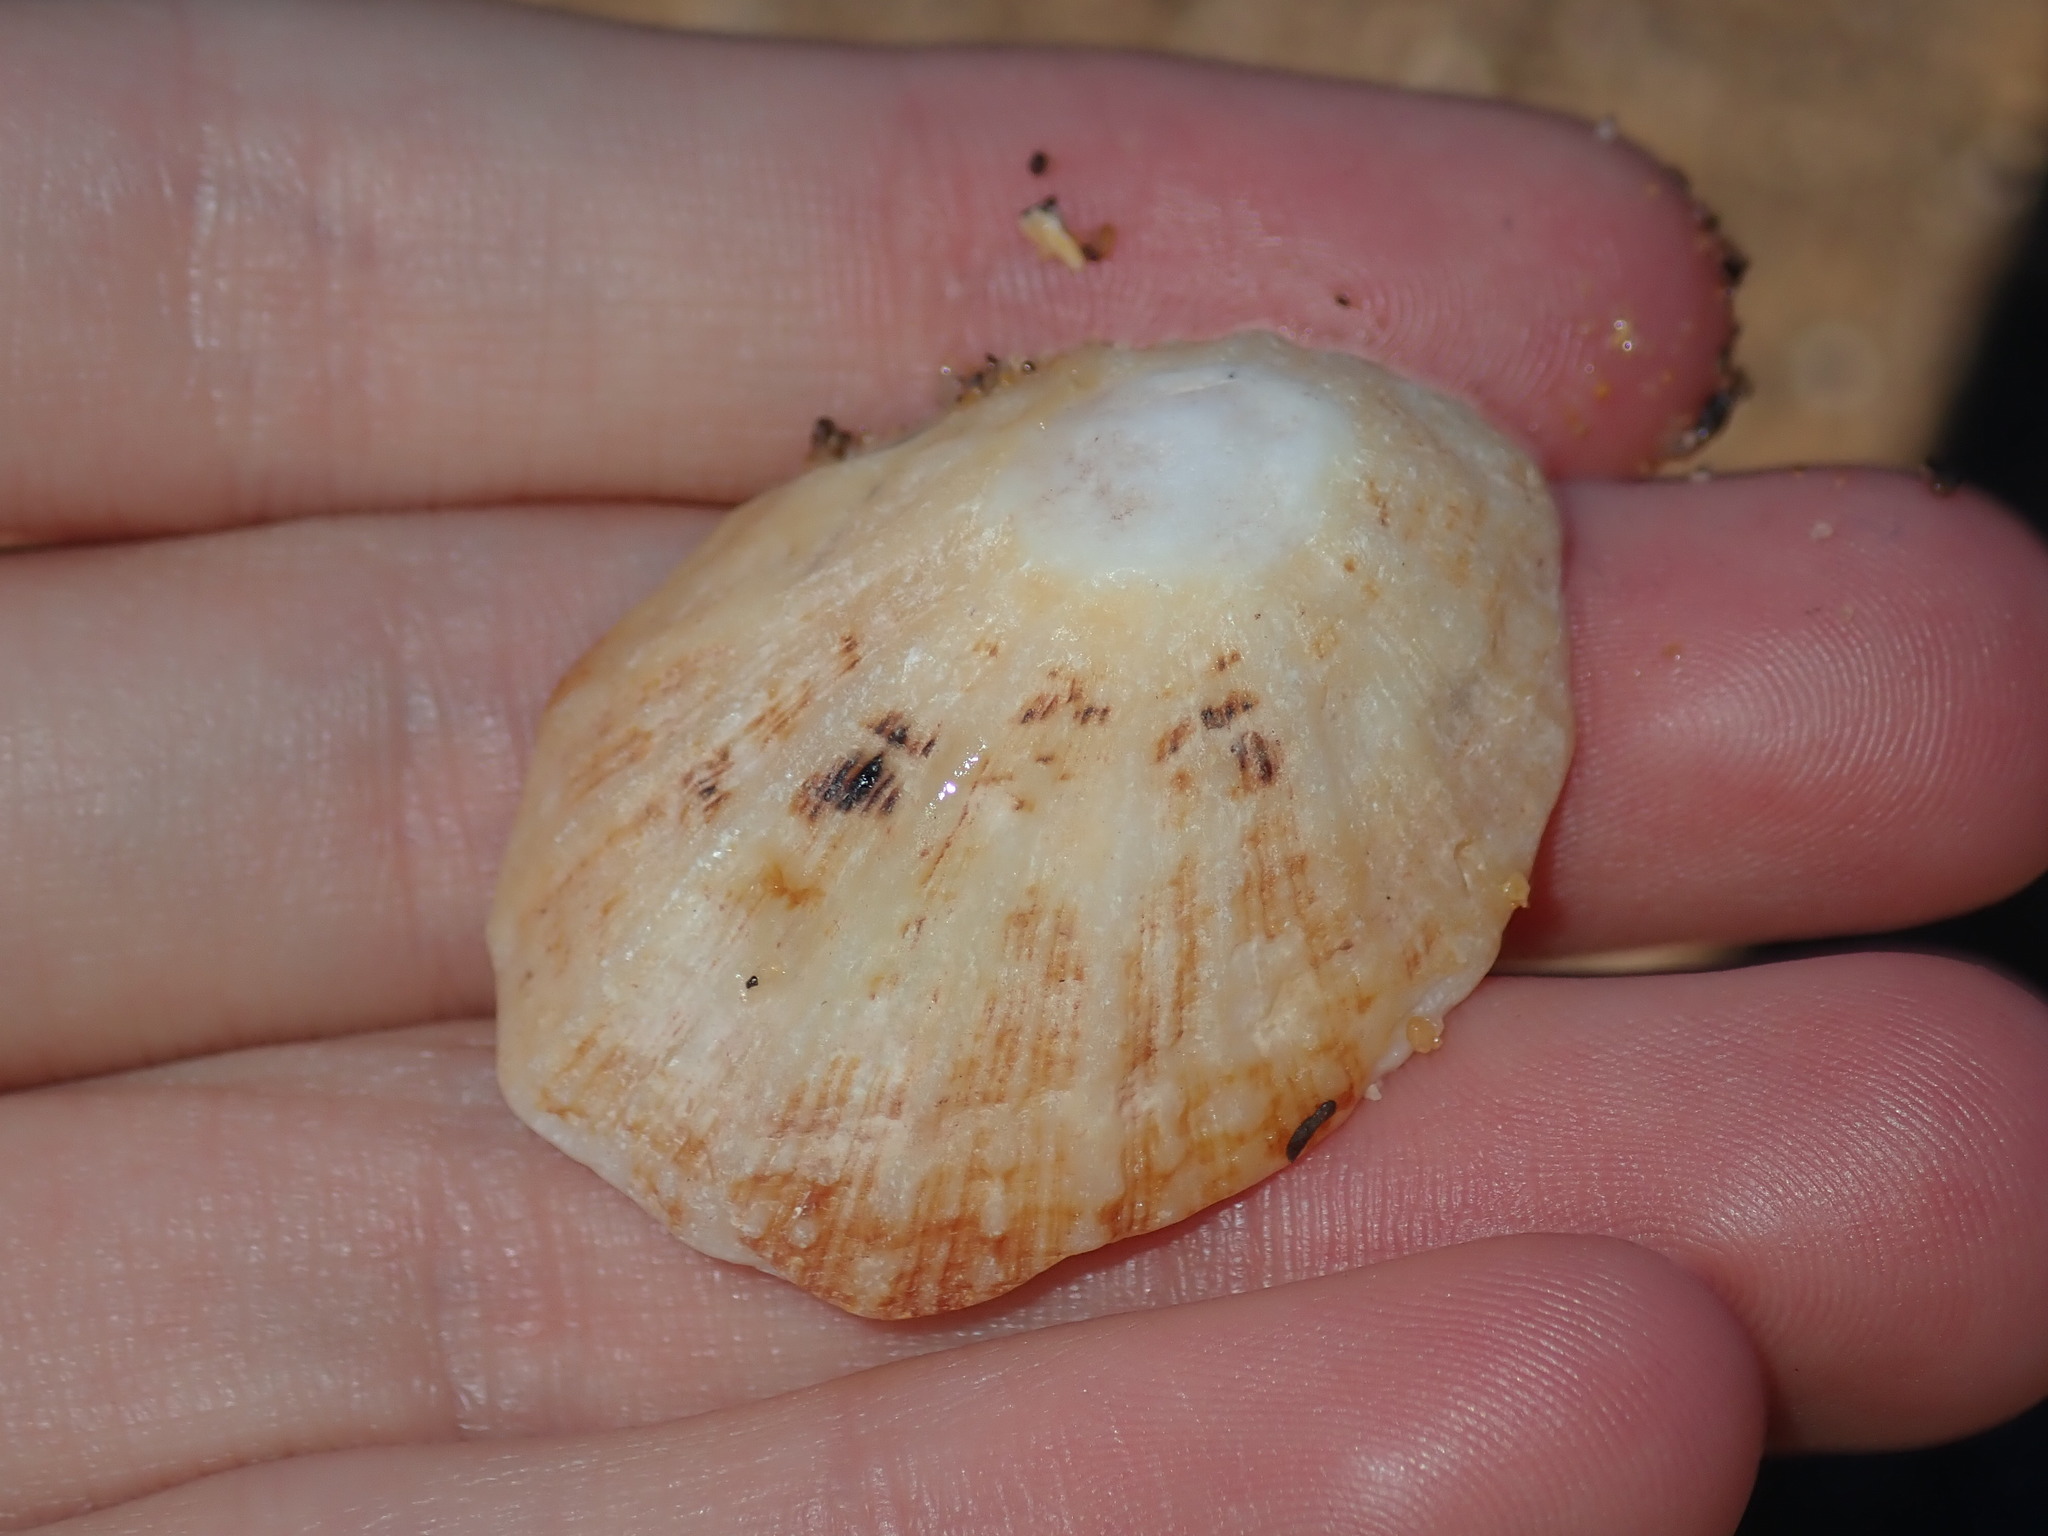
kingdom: Animalia
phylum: Mollusca
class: Gastropoda
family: Patellidae
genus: Scutellastra
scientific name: Scutellastra peronii
